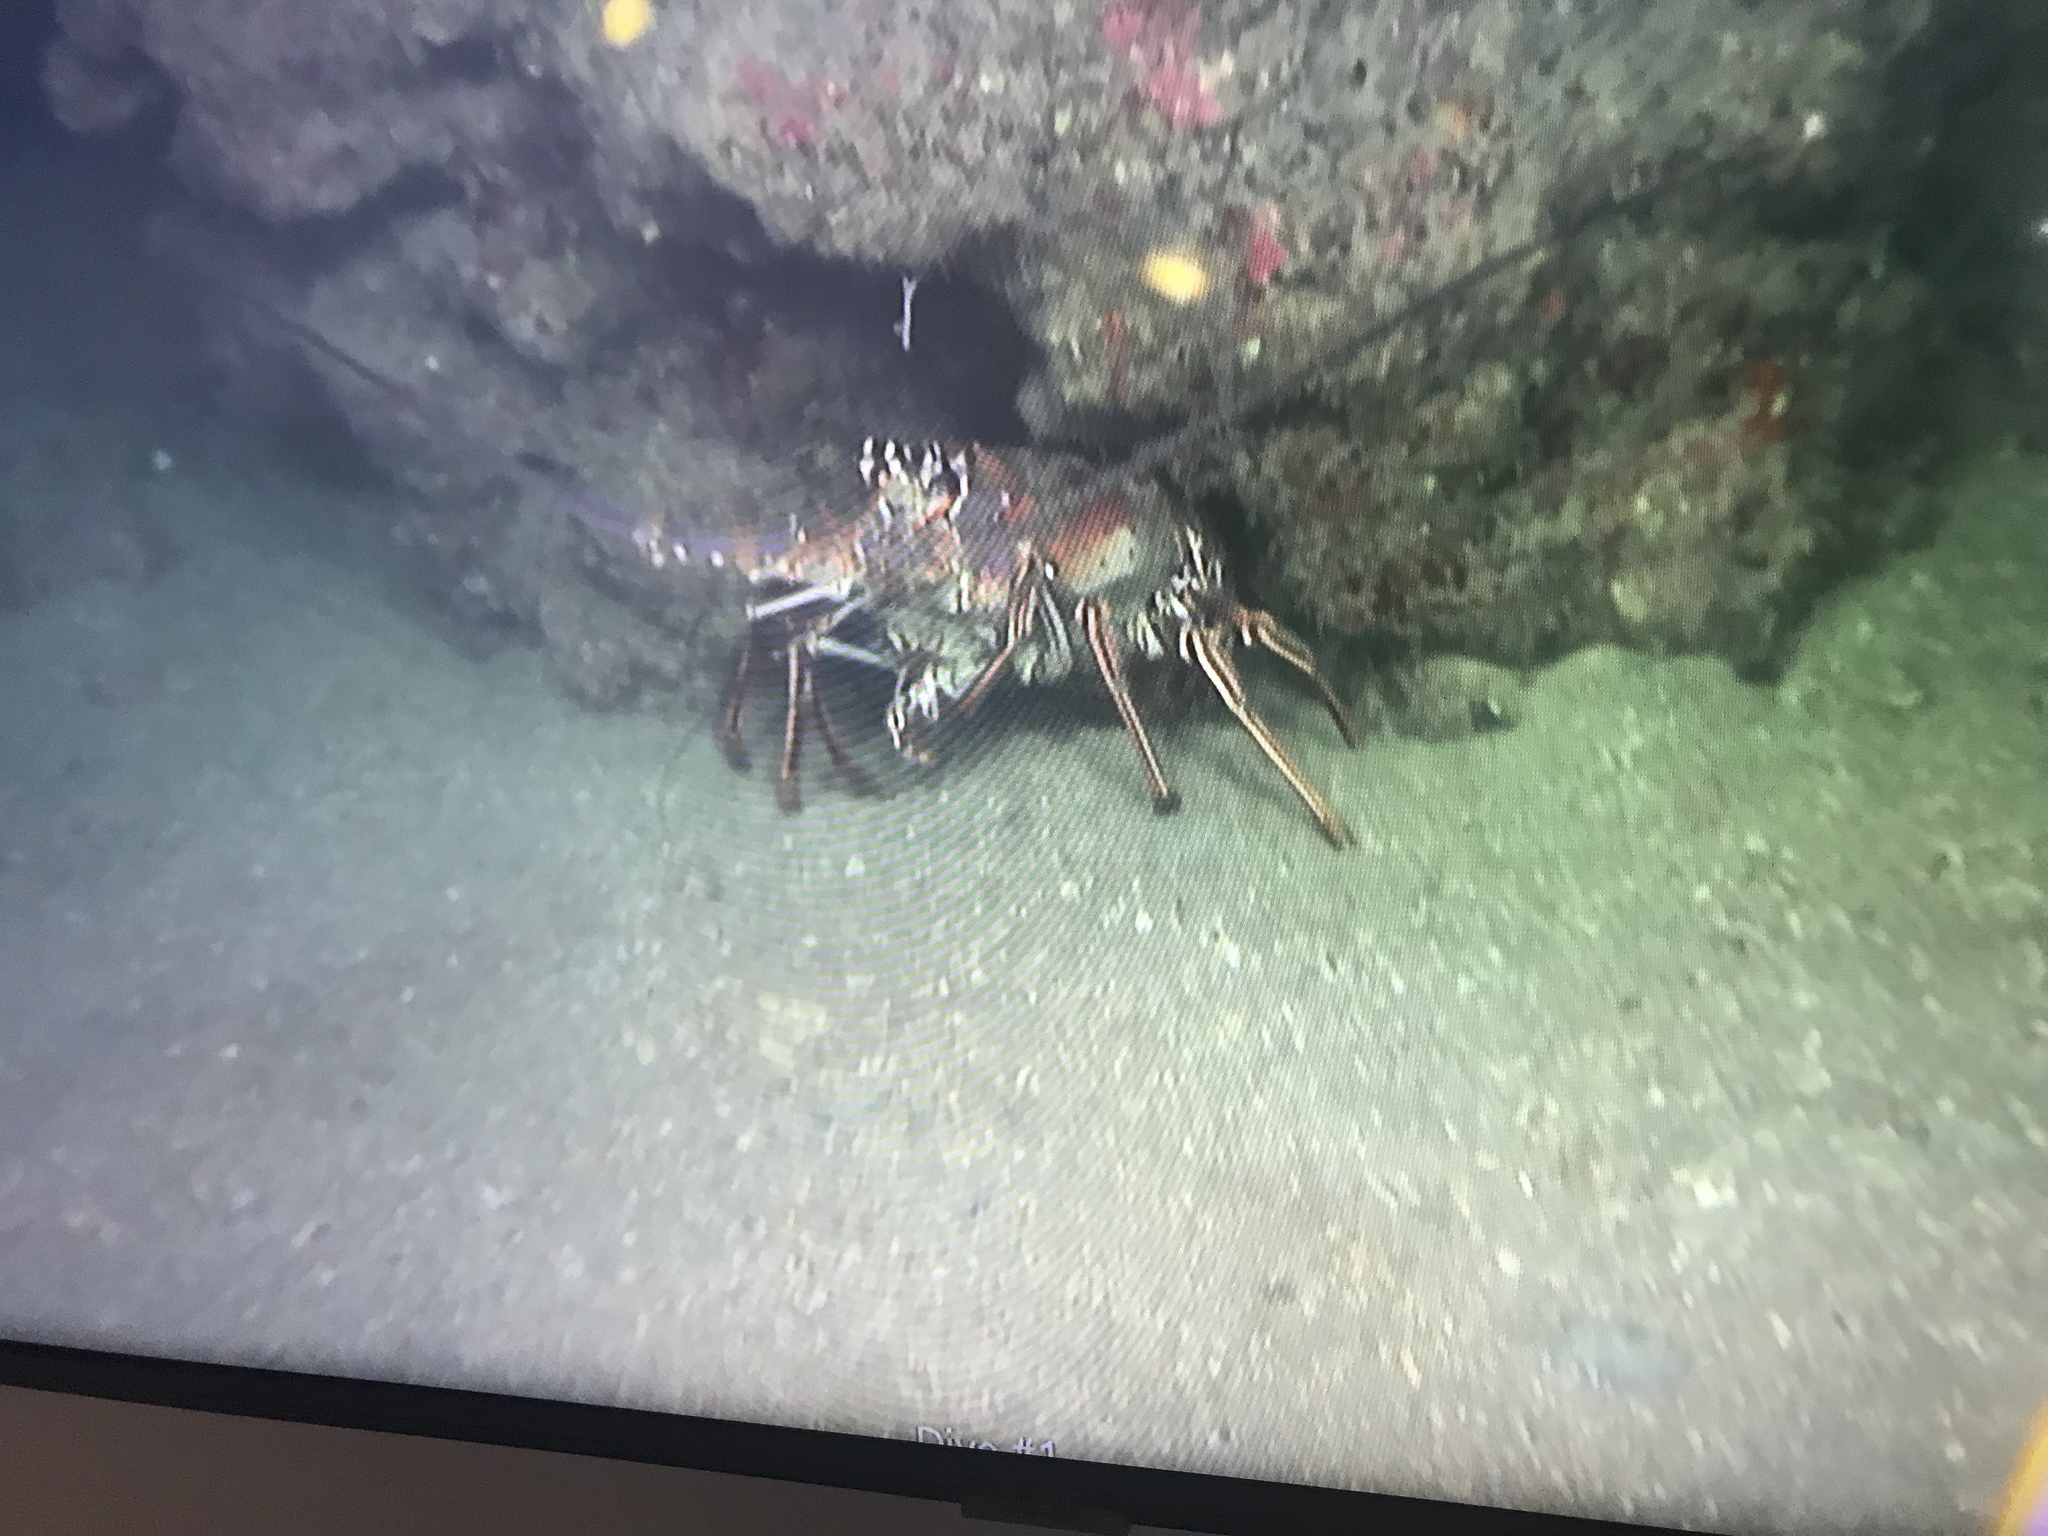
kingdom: Animalia
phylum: Arthropoda
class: Malacostraca
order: Decapoda
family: Palinuridae
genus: Panulirus
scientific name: Panulirus argus
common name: Caribbean spiny lobster
